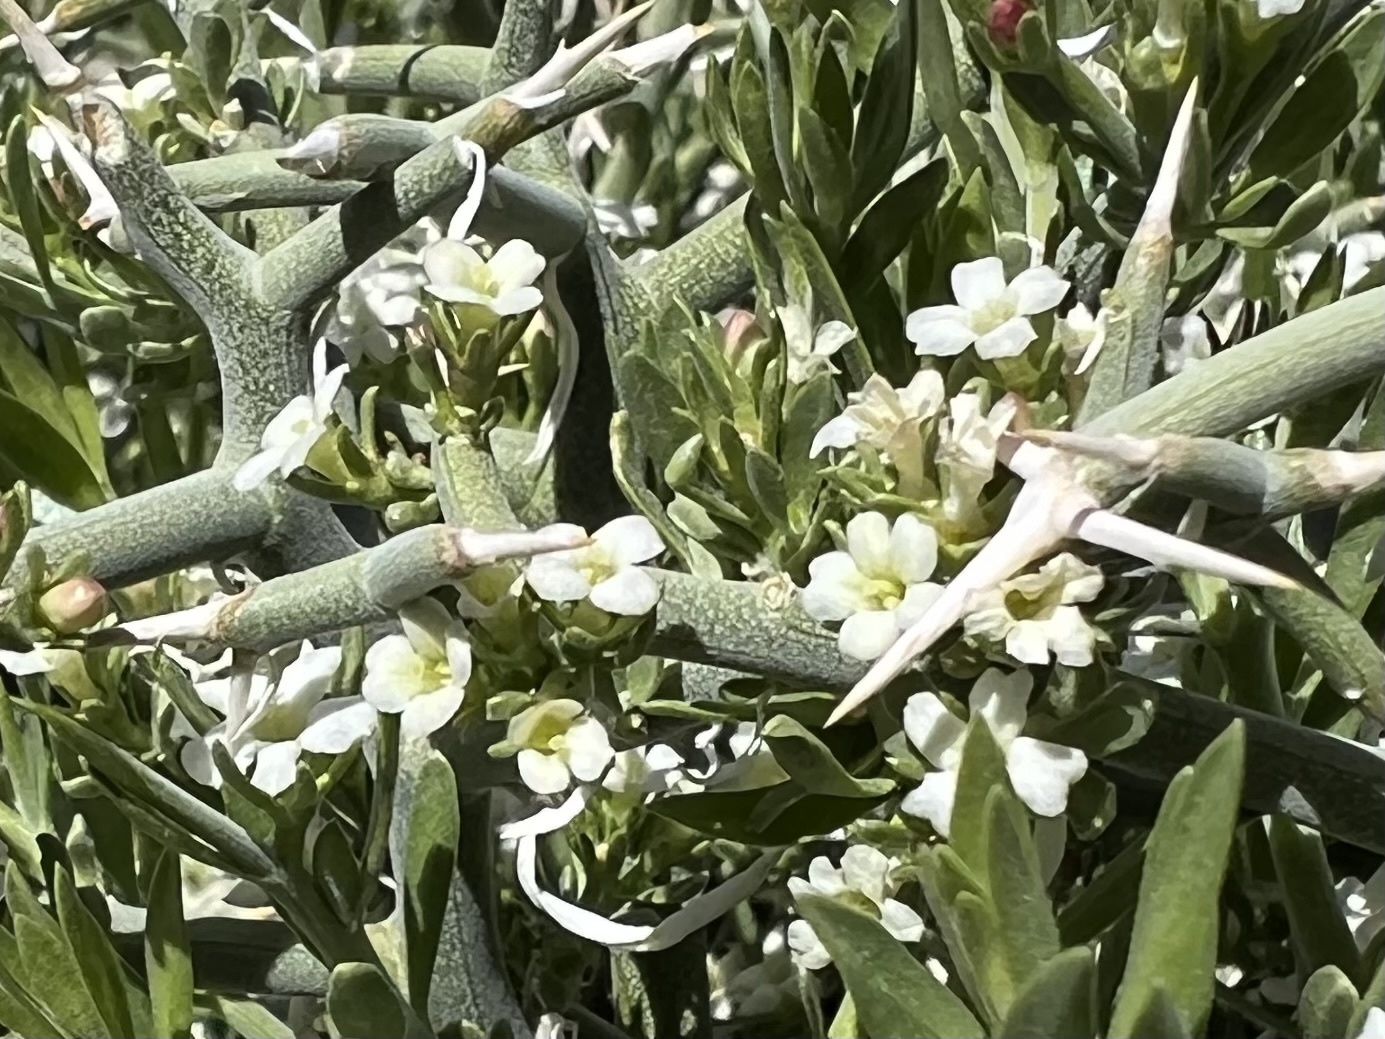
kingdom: Plantae
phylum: Tracheophyta
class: Magnoliopsida
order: Lamiales
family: Oleaceae
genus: Menodora
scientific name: Menodora spinescens
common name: Spiny menodora
